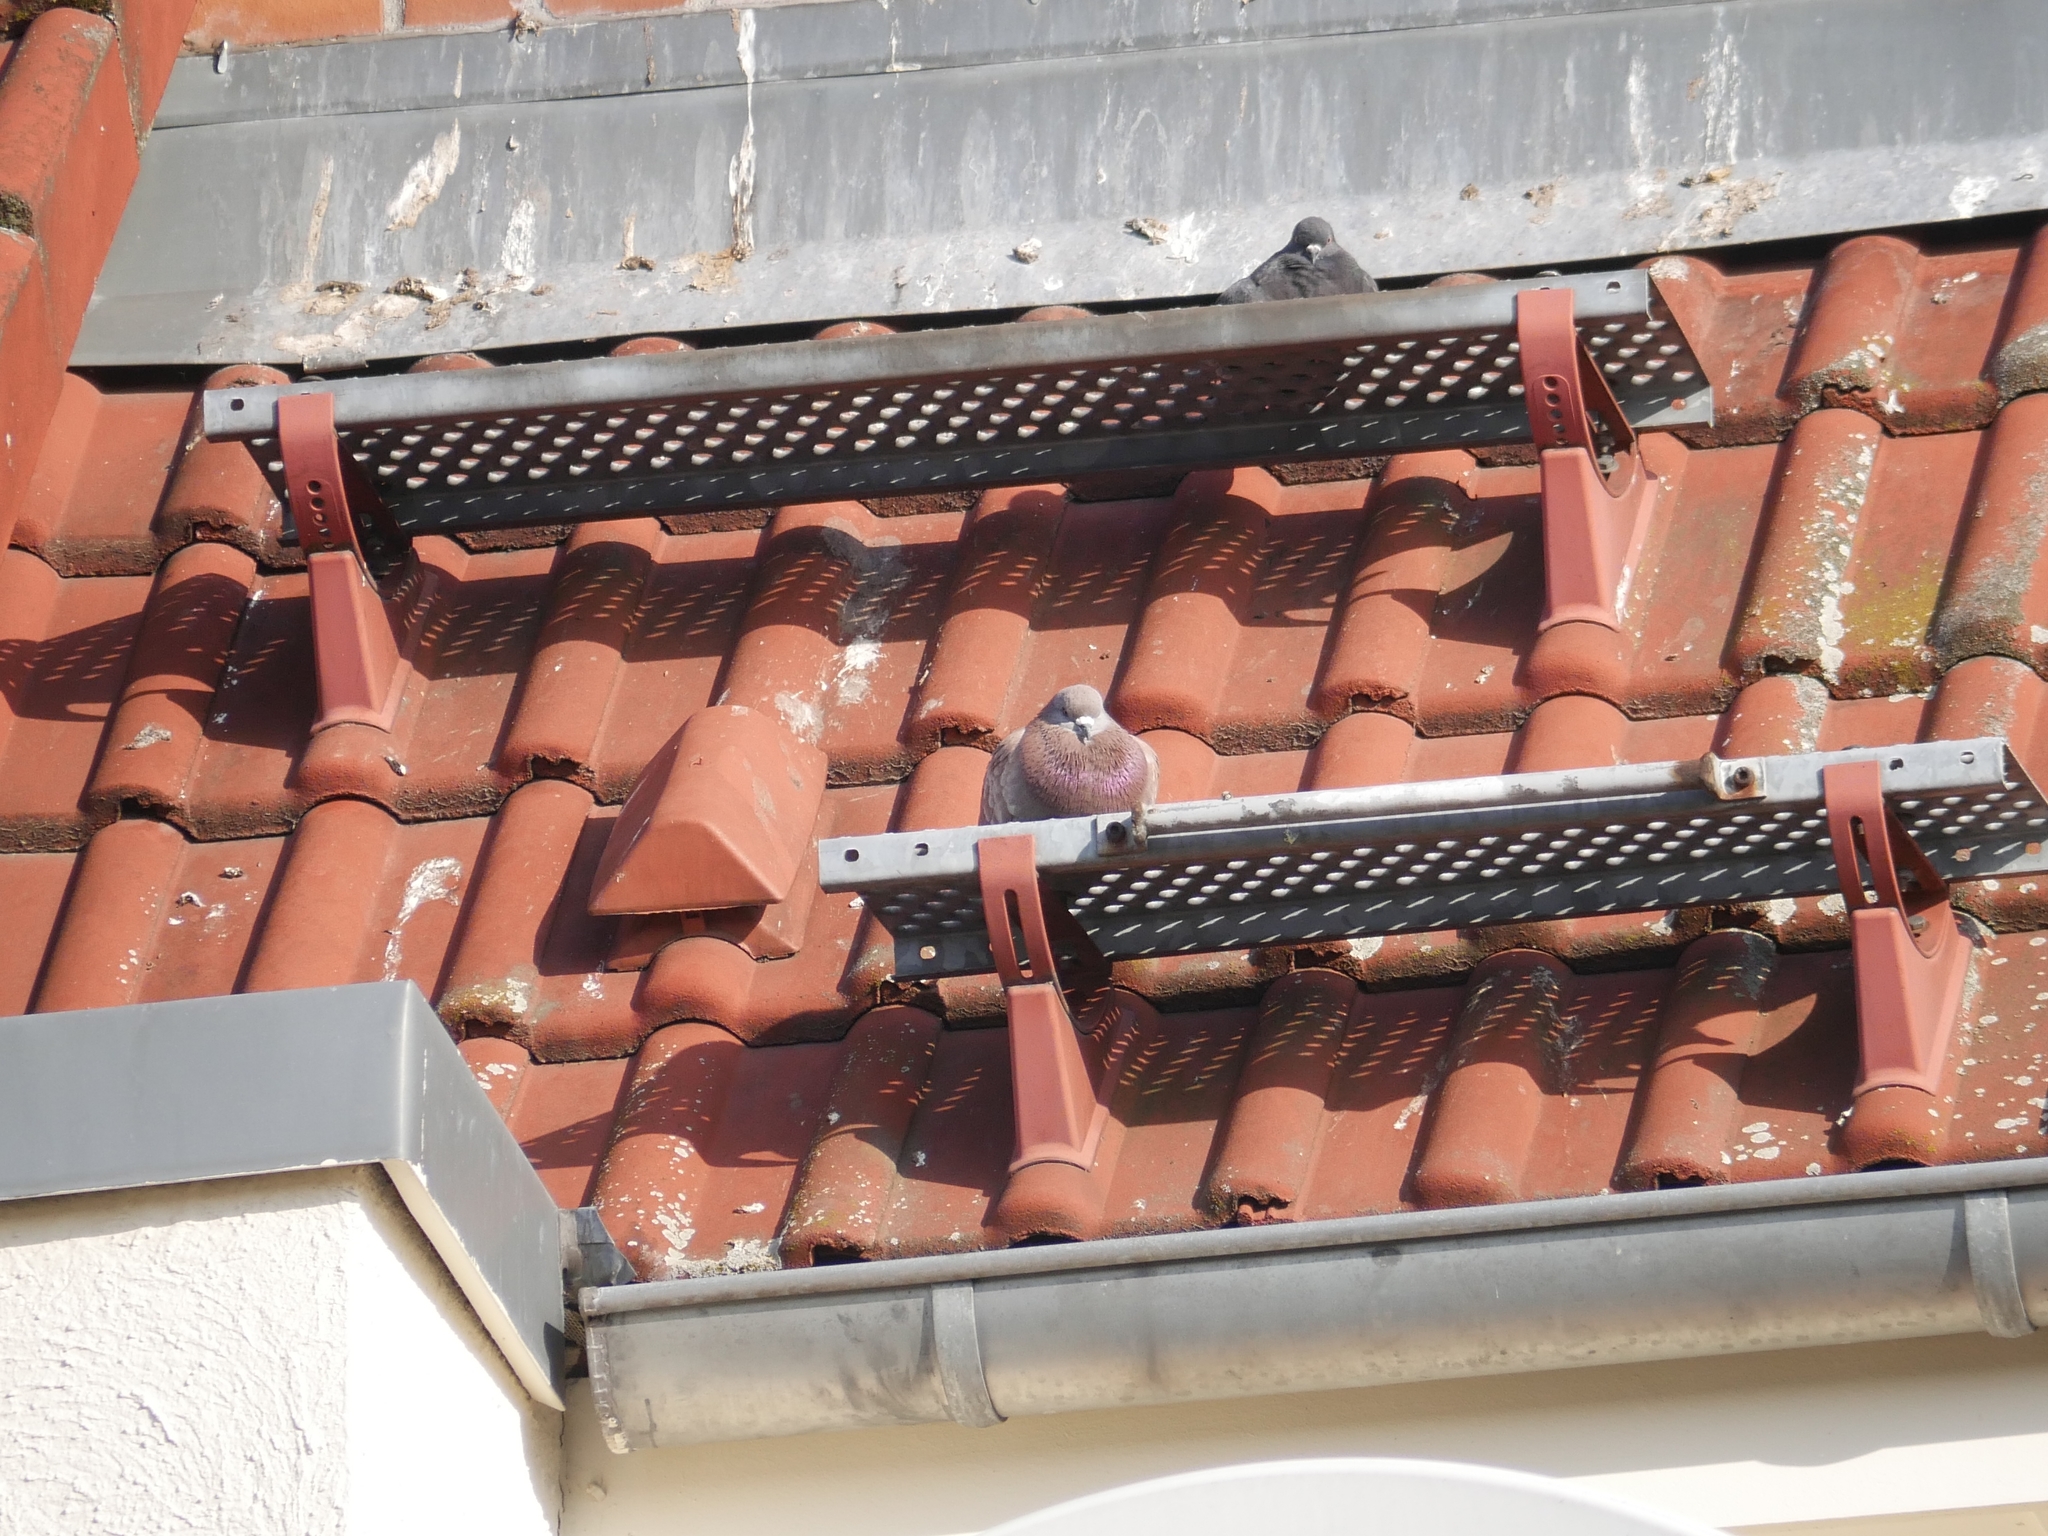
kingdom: Animalia
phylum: Chordata
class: Aves
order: Columbiformes
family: Columbidae
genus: Columba
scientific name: Columba livia
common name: Rock pigeon
